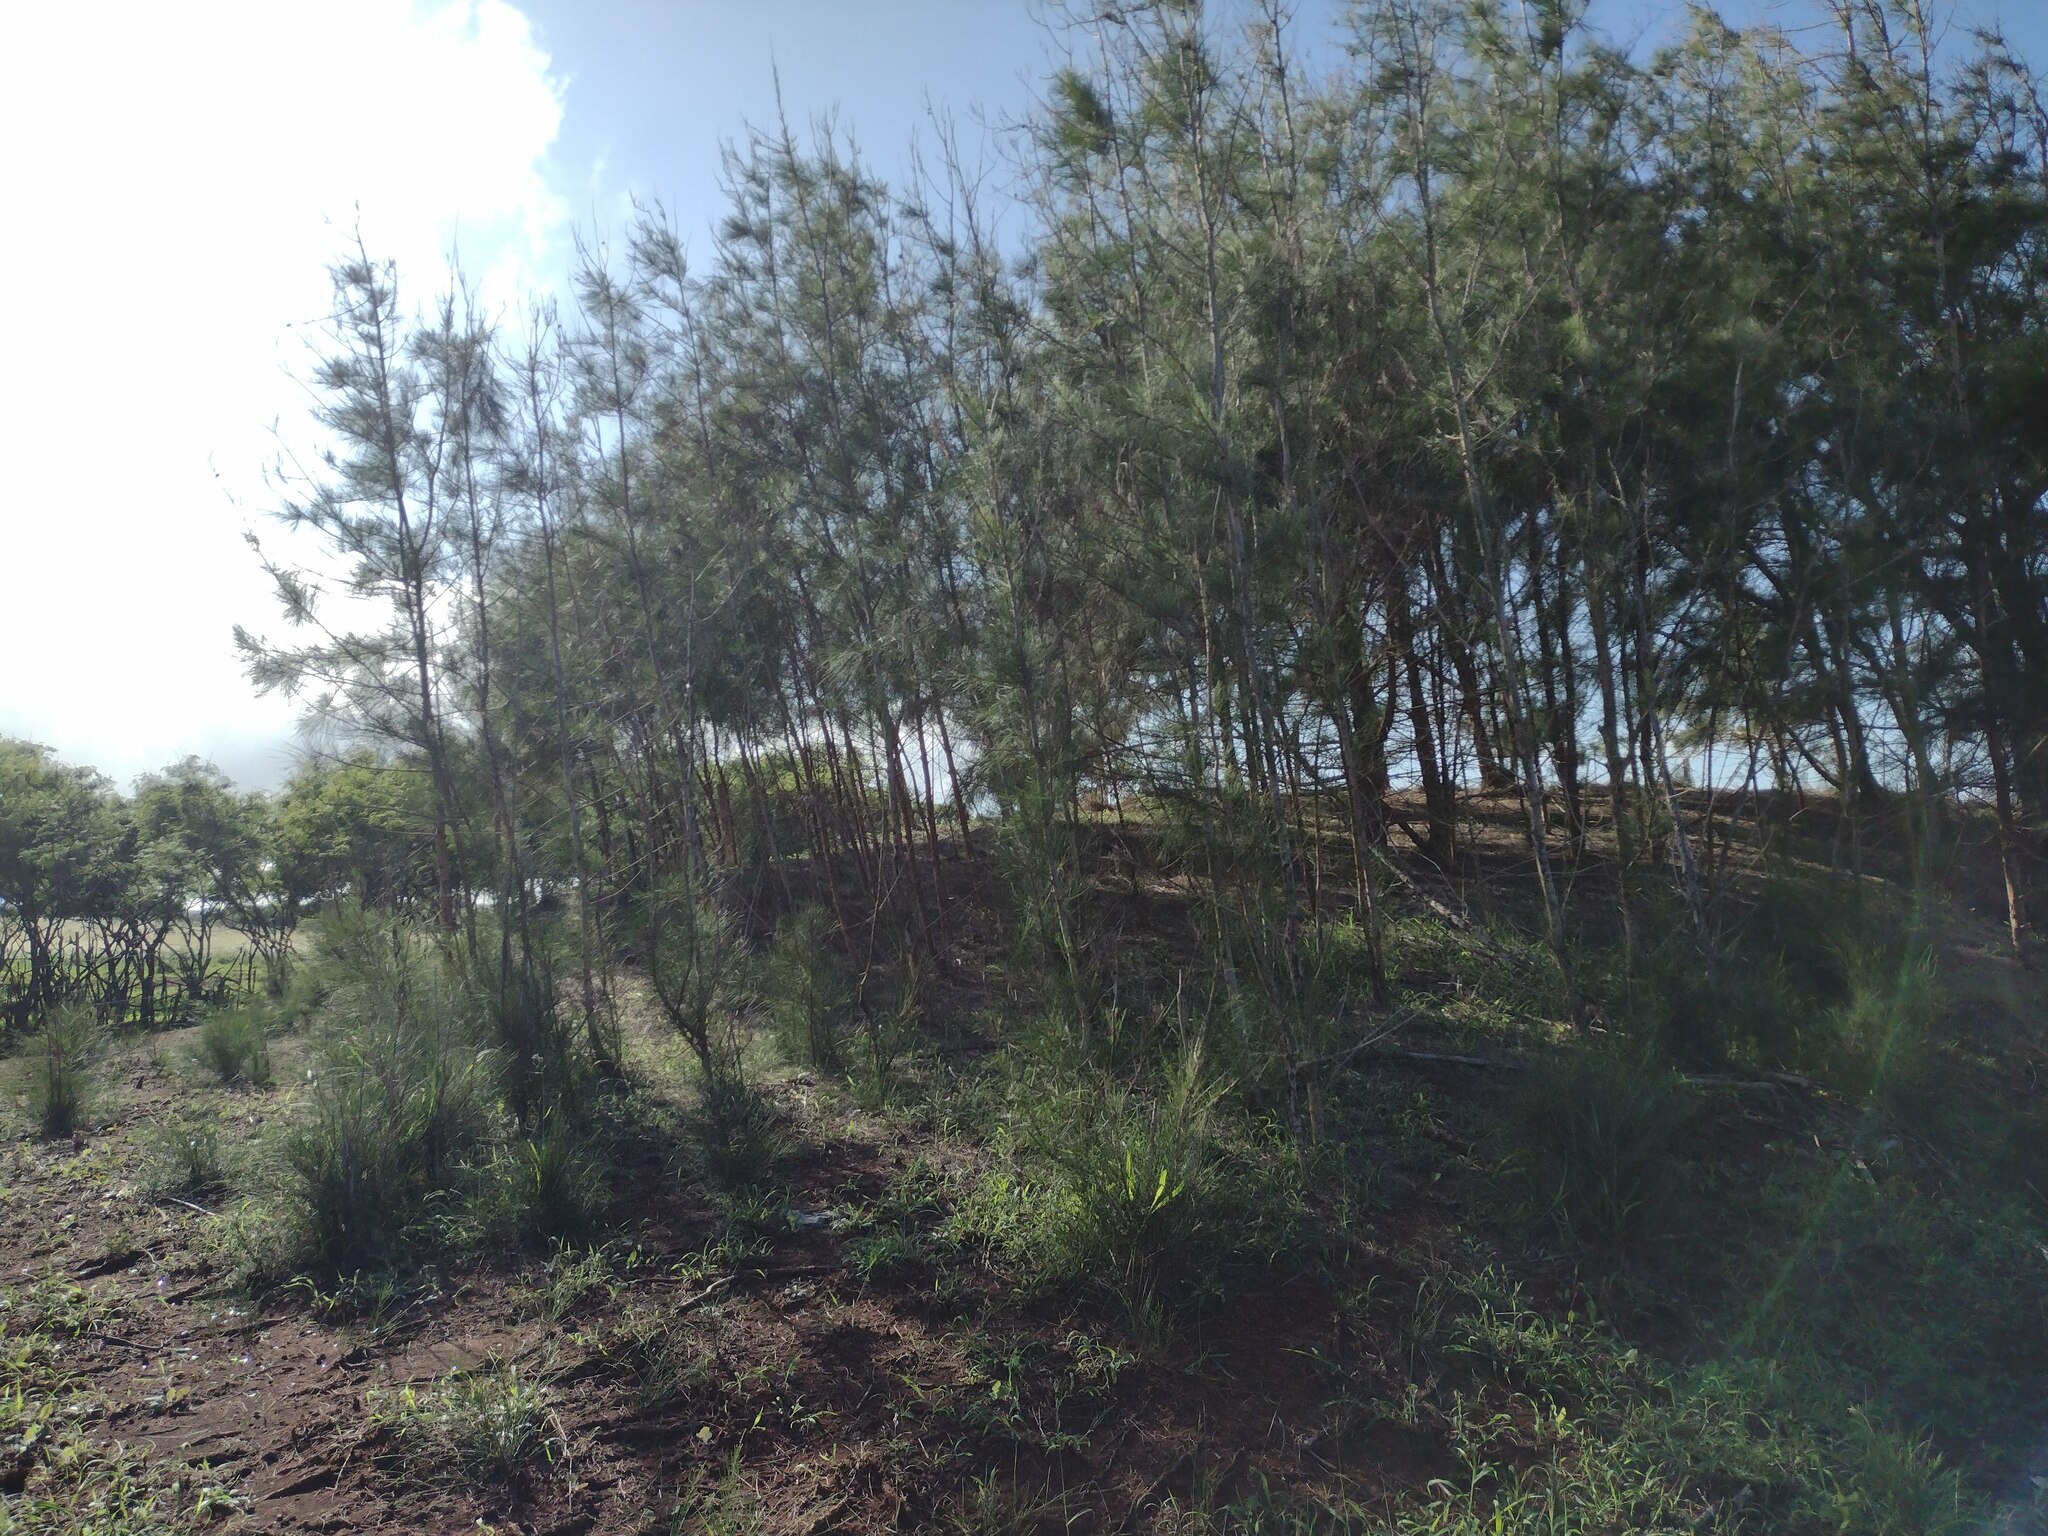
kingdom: Plantae
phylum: Tracheophyta
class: Magnoliopsida
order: Fagales
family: Casuarinaceae
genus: Casuarina
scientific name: Casuarina equisetifolia
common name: Beach sheoak
